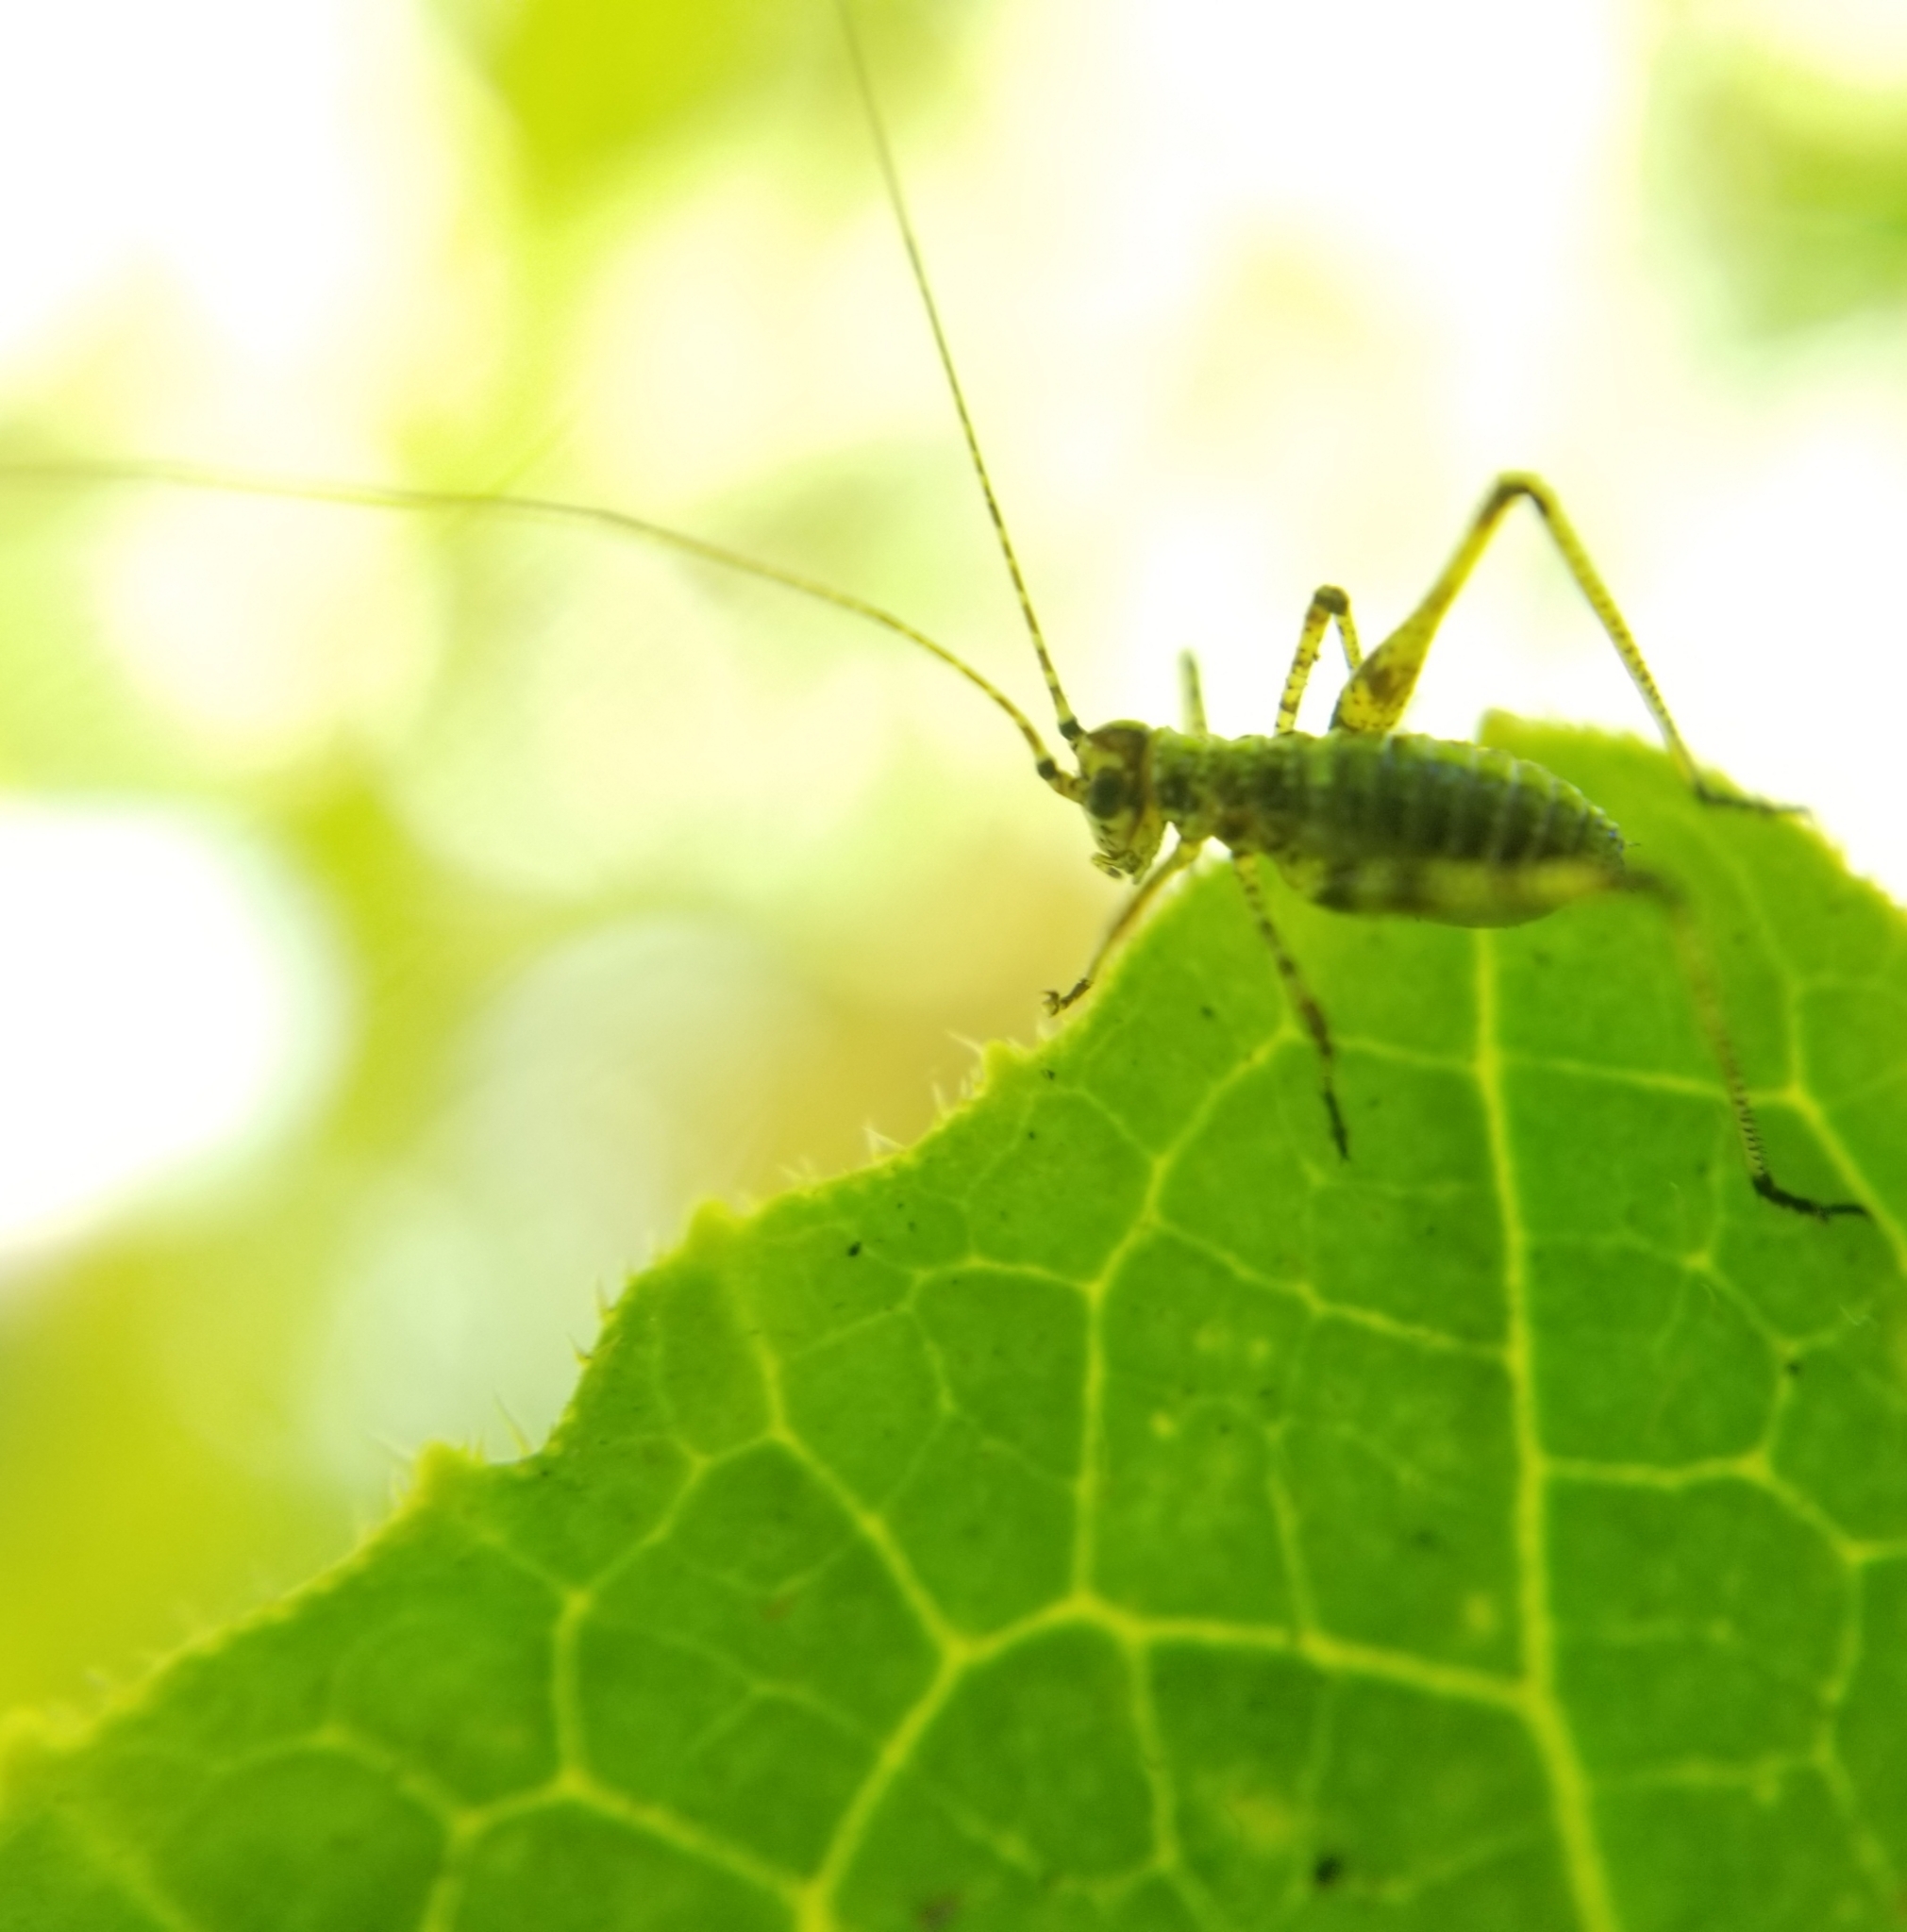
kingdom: Animalia
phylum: Arthropoda
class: Insecta
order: Orthoptera
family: Tettigoniidae
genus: Phaneroptera
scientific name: Phaneroptera nana
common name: Southern sickle bush-cricket
